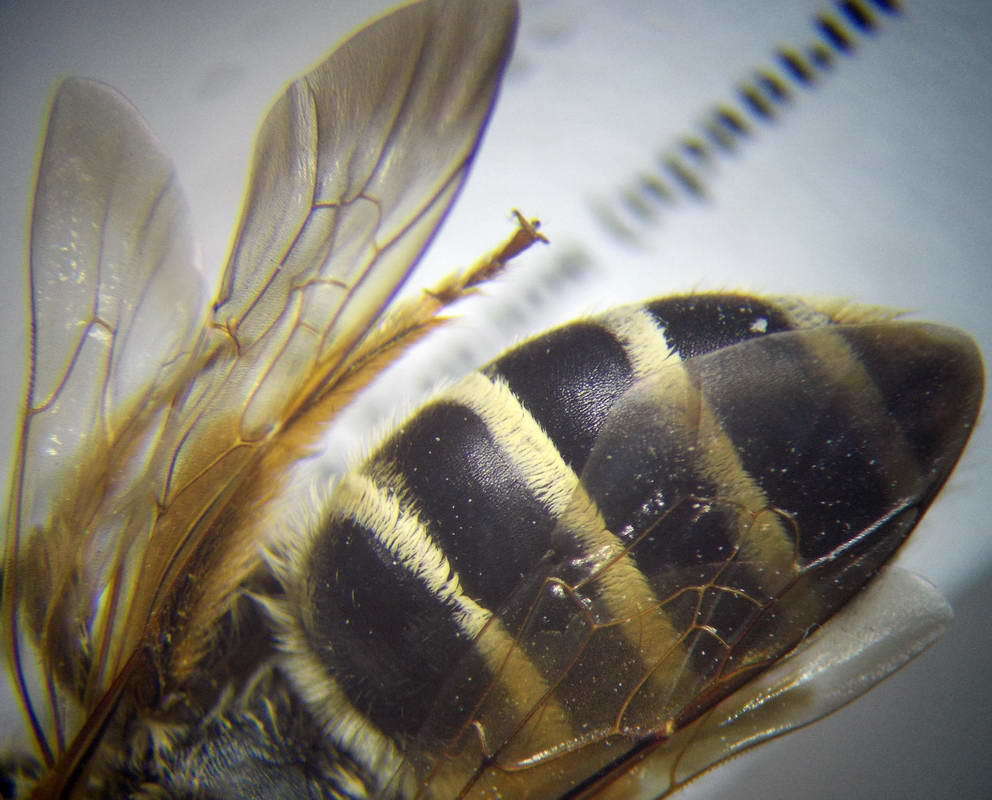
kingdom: Animalia
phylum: Arthropoda
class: Insecta
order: Hymenoptera
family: Halictidae
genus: Halictus
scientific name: Halictus quadricinctus
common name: Giant furrow bee
